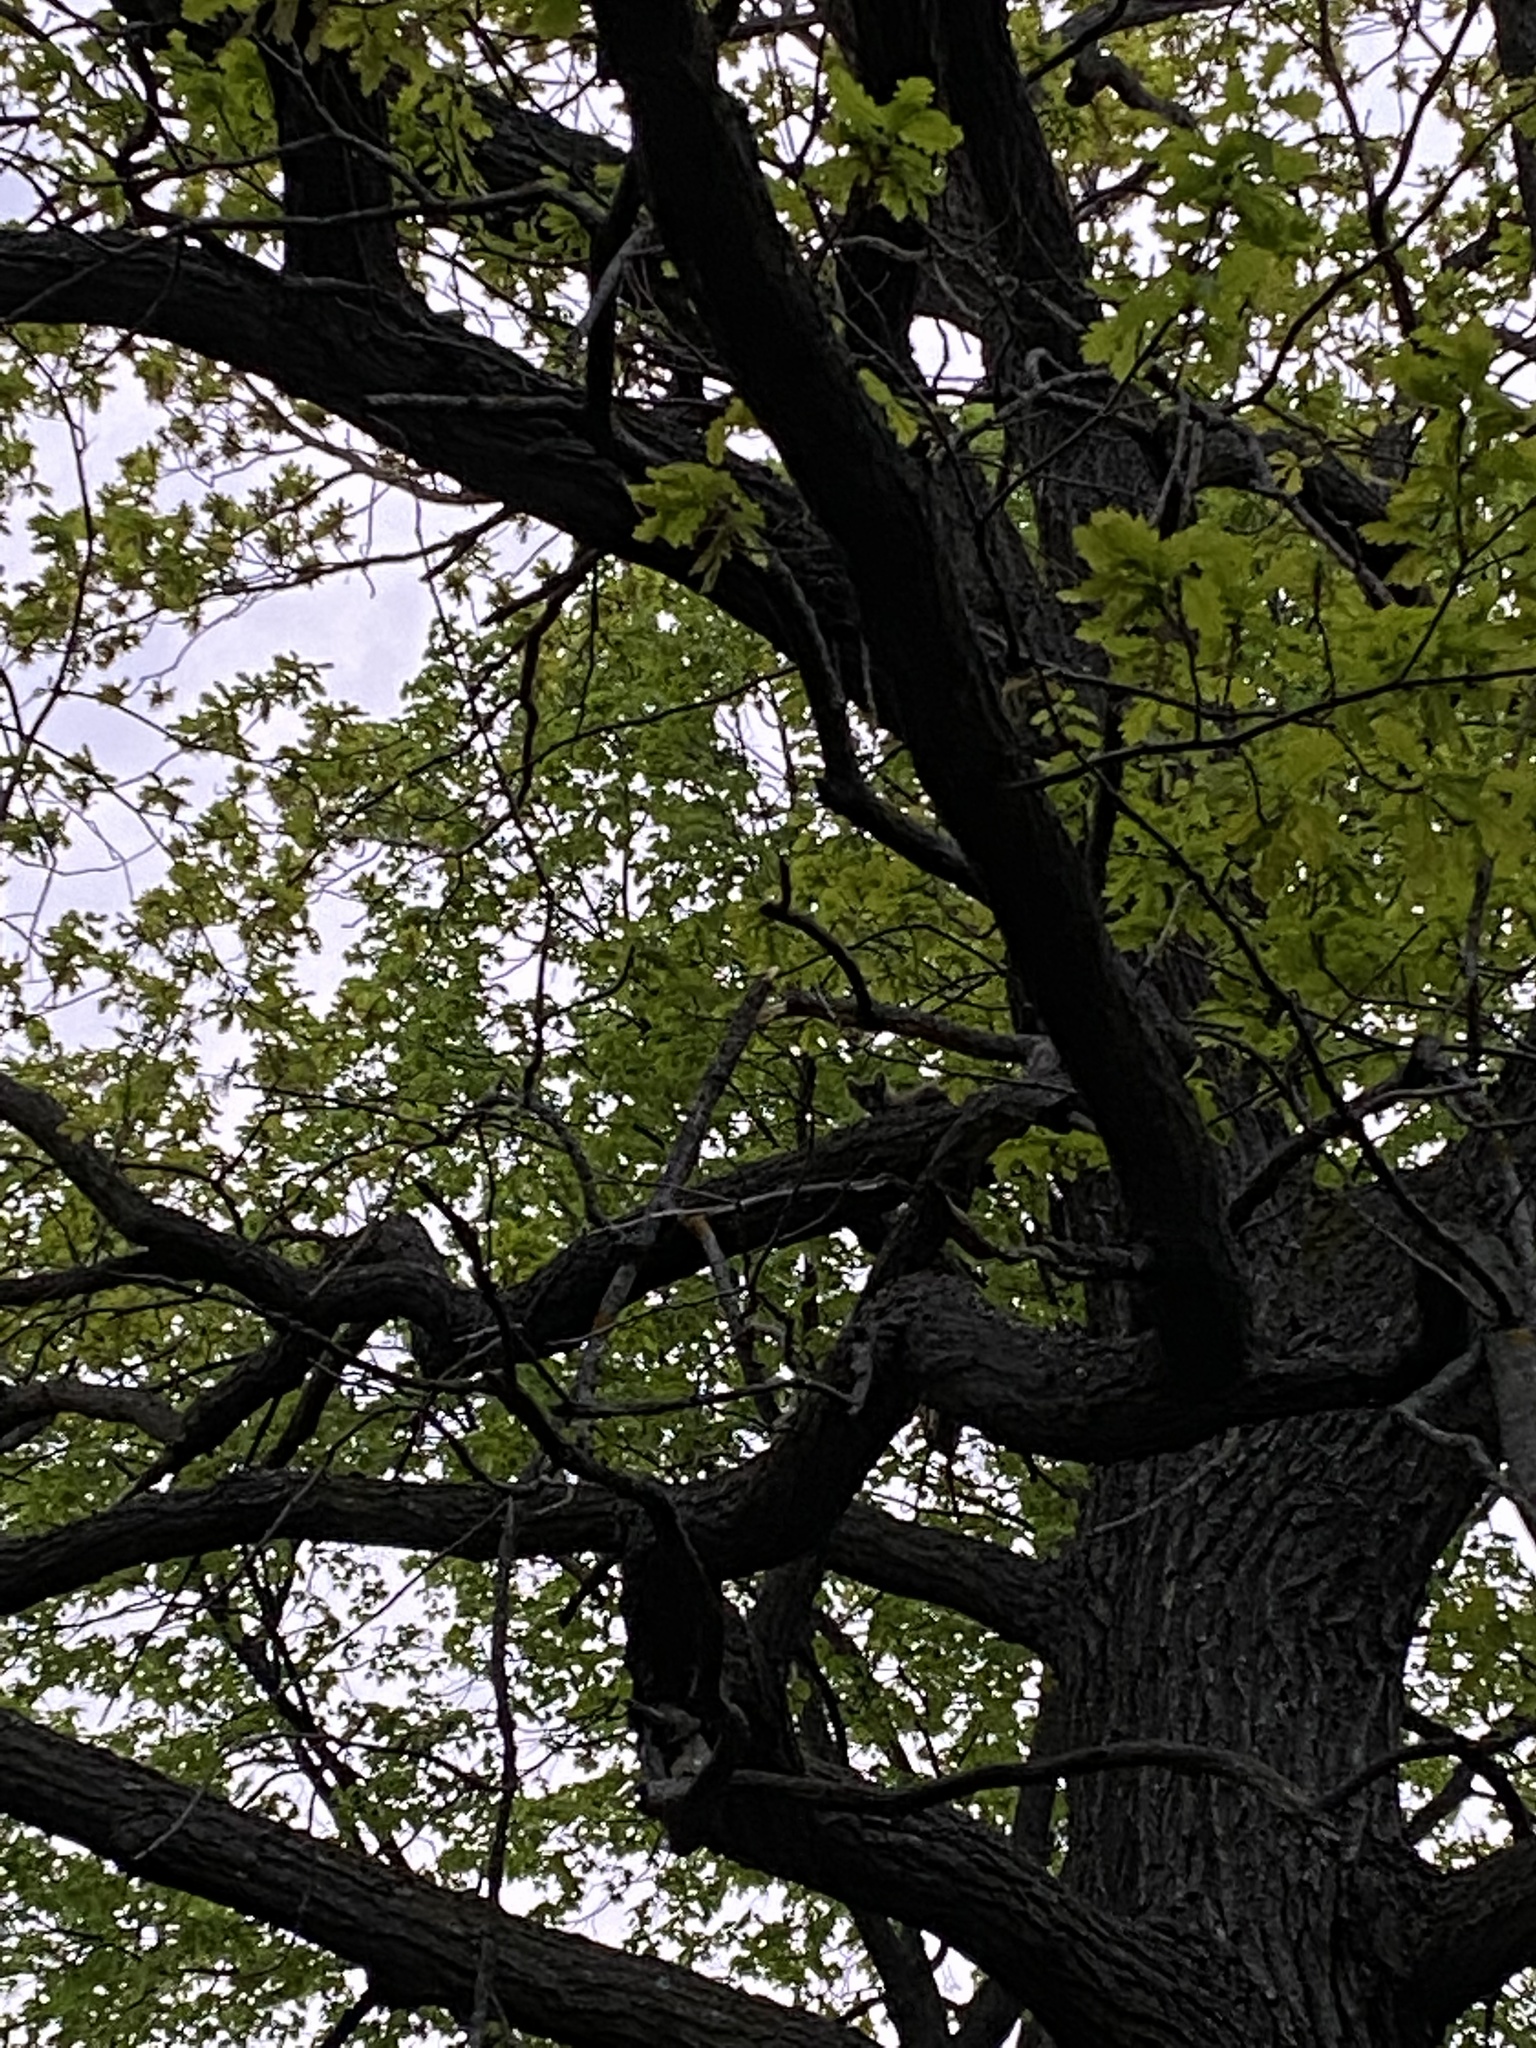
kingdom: Animalia
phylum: Chordata
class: Mammalia
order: Carnivora
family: Mustelidae
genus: Martes
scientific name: Martes martes
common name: European pine marten
